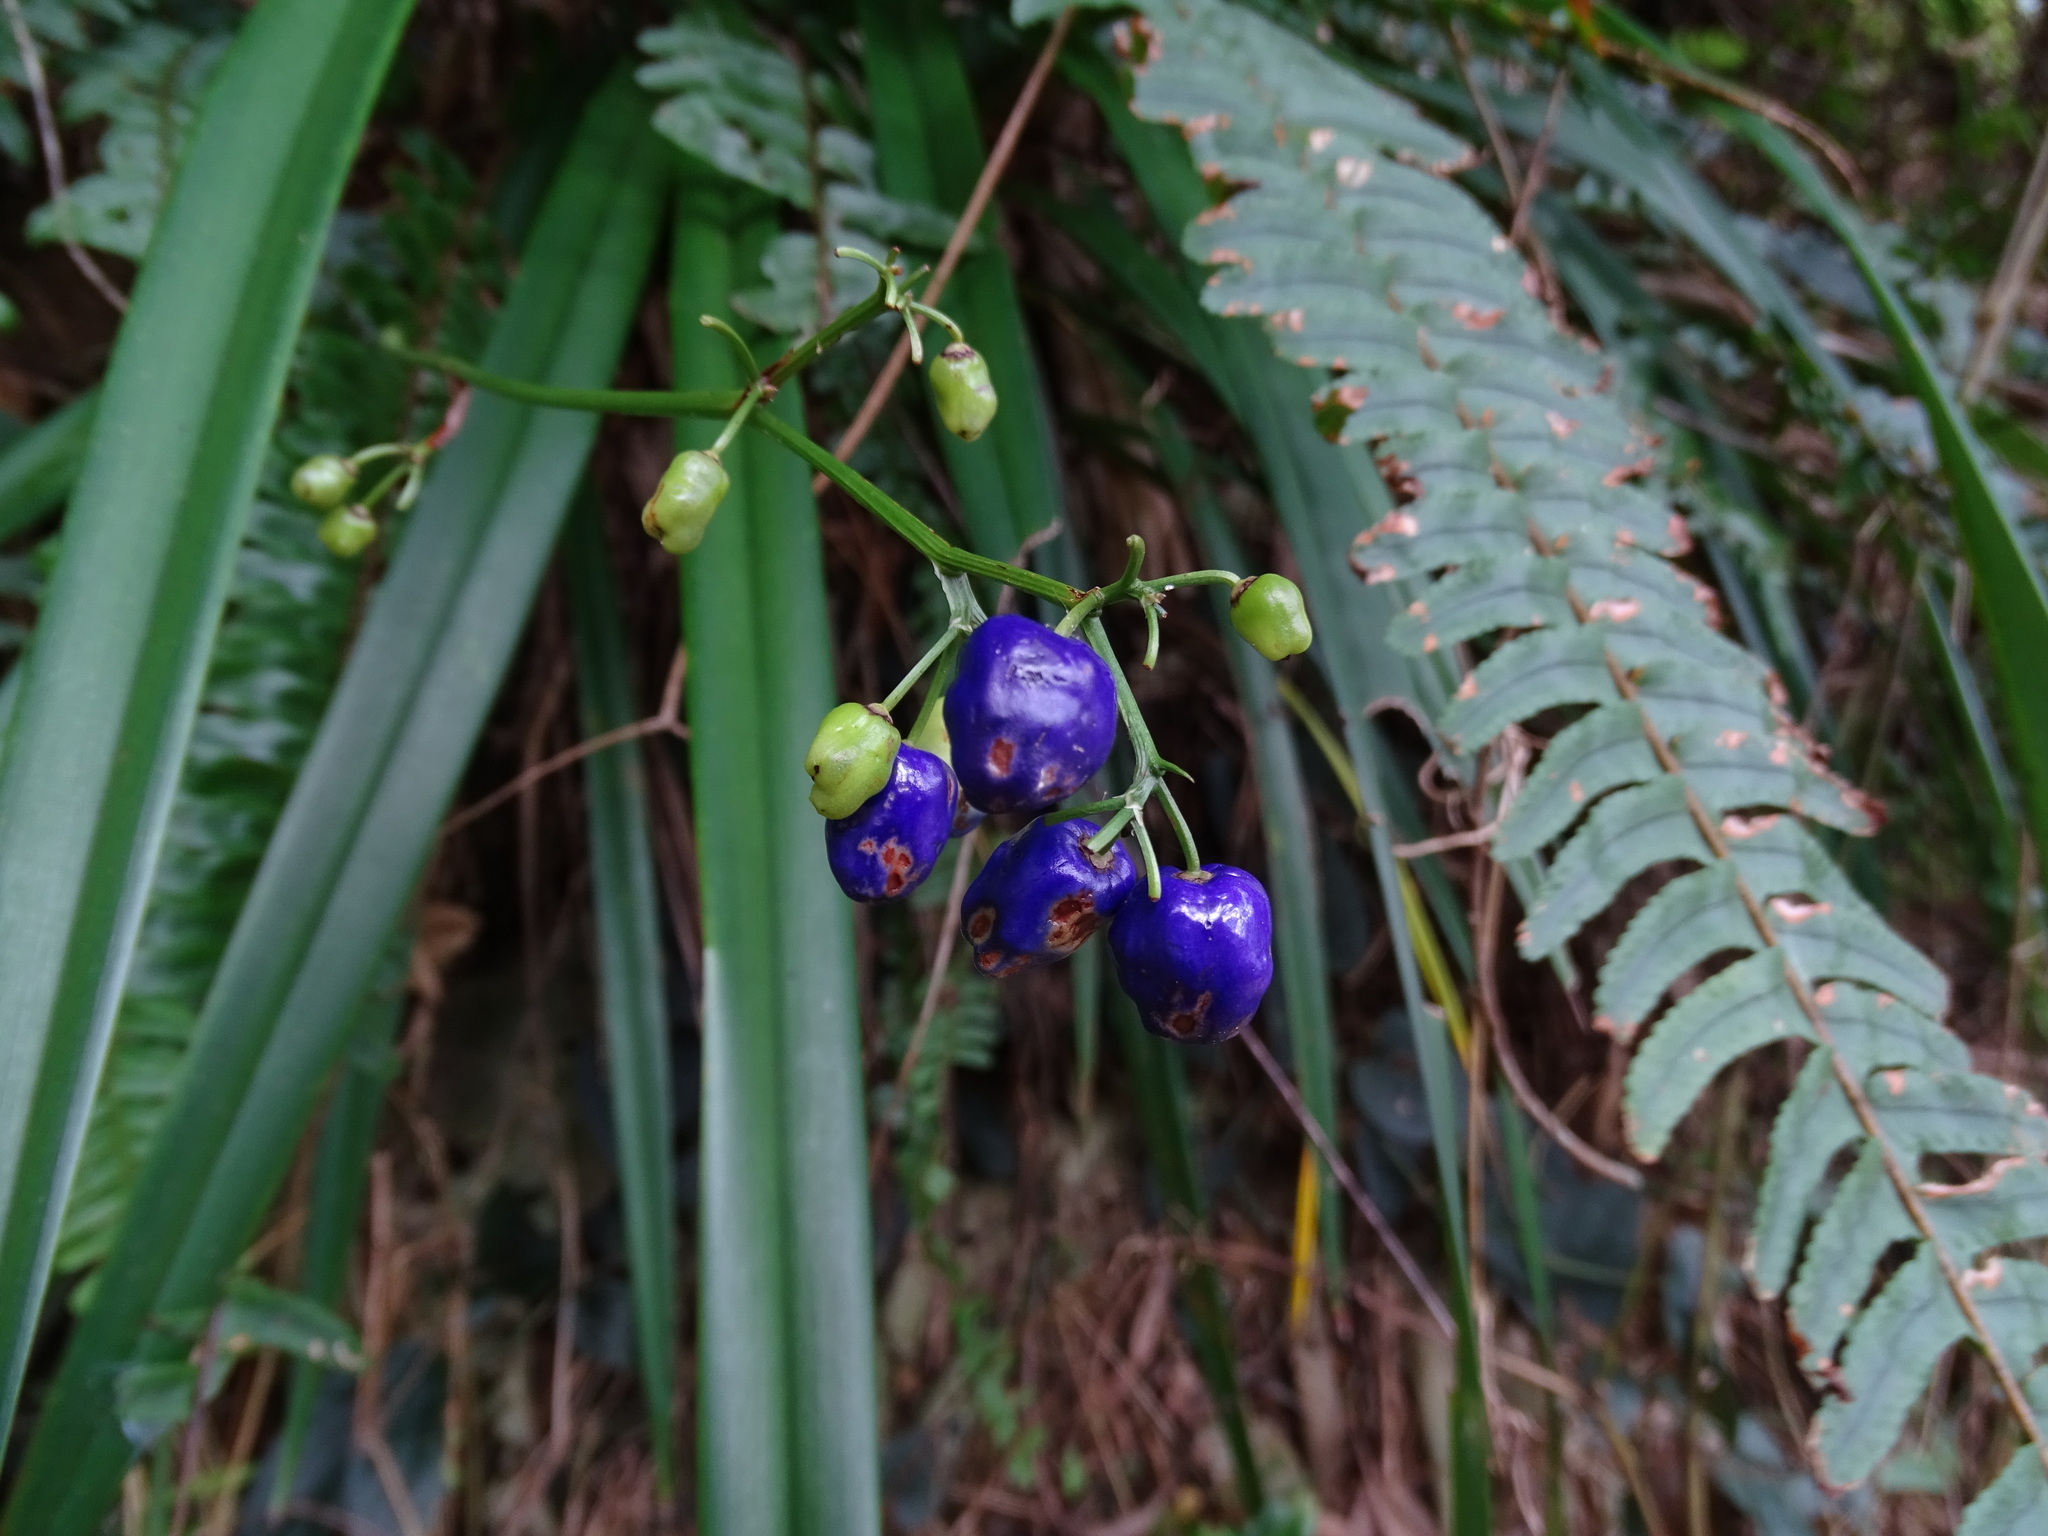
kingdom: Plantae
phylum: Tracheophyta
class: Liliopsida
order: Asparagales
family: Asphodelaceae
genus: Dianella
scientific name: Dianella ensifolia
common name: New zealand lilyplant
